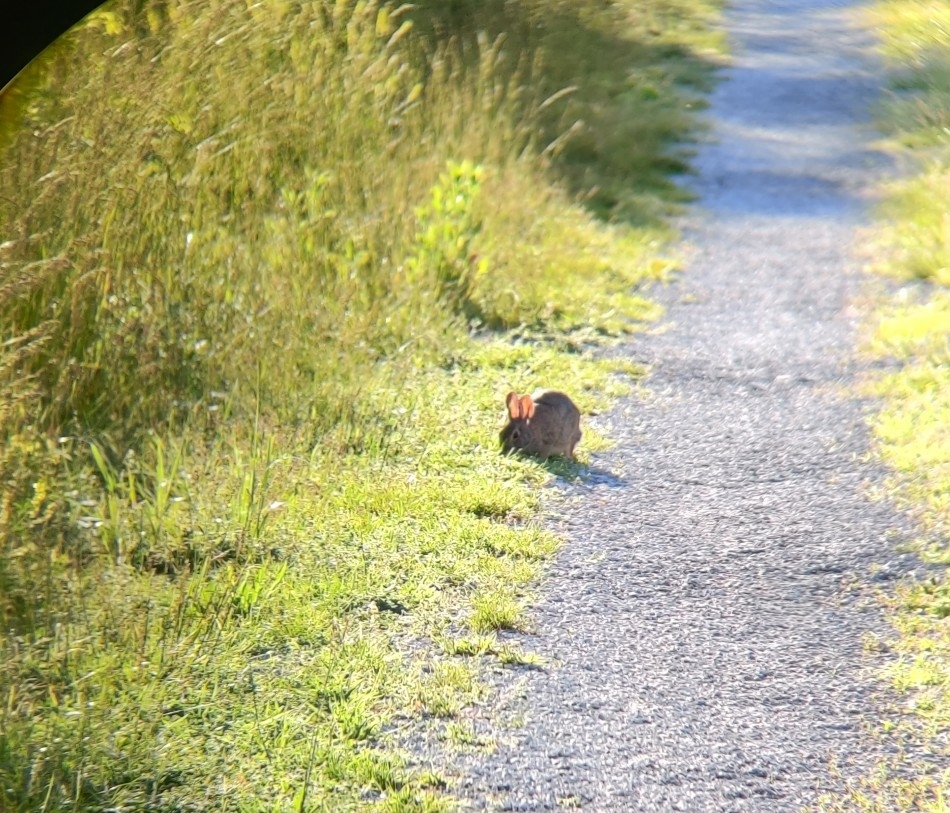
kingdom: Animalia
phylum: Chordata
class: Mammalia
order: Lagomorpha
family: Leporidae
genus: Sylvilagus
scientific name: Sylvilagus floridanus
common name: Eastern cottontail
